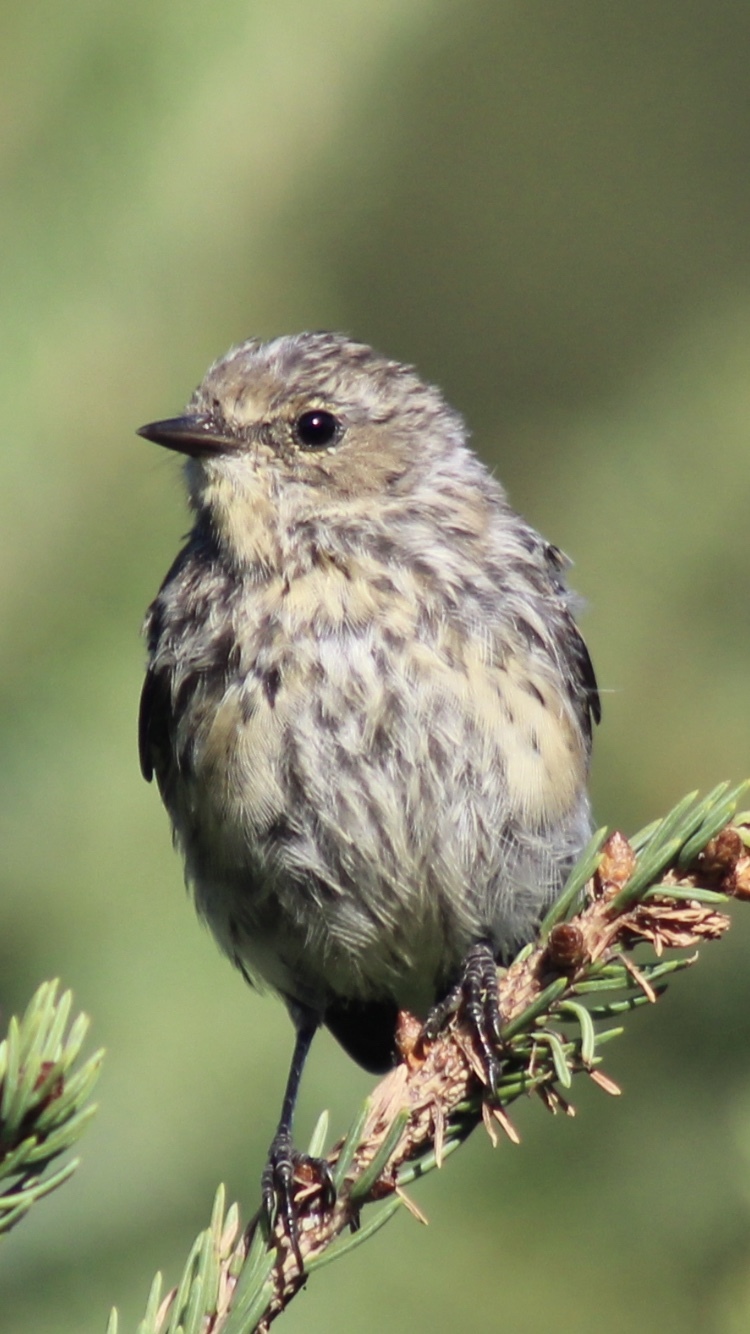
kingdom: Animalia
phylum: Chordata
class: Aves
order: Passeriformes
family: Parulidae
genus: Setophaga
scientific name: Setophaga coronata
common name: Myrtle warbler
